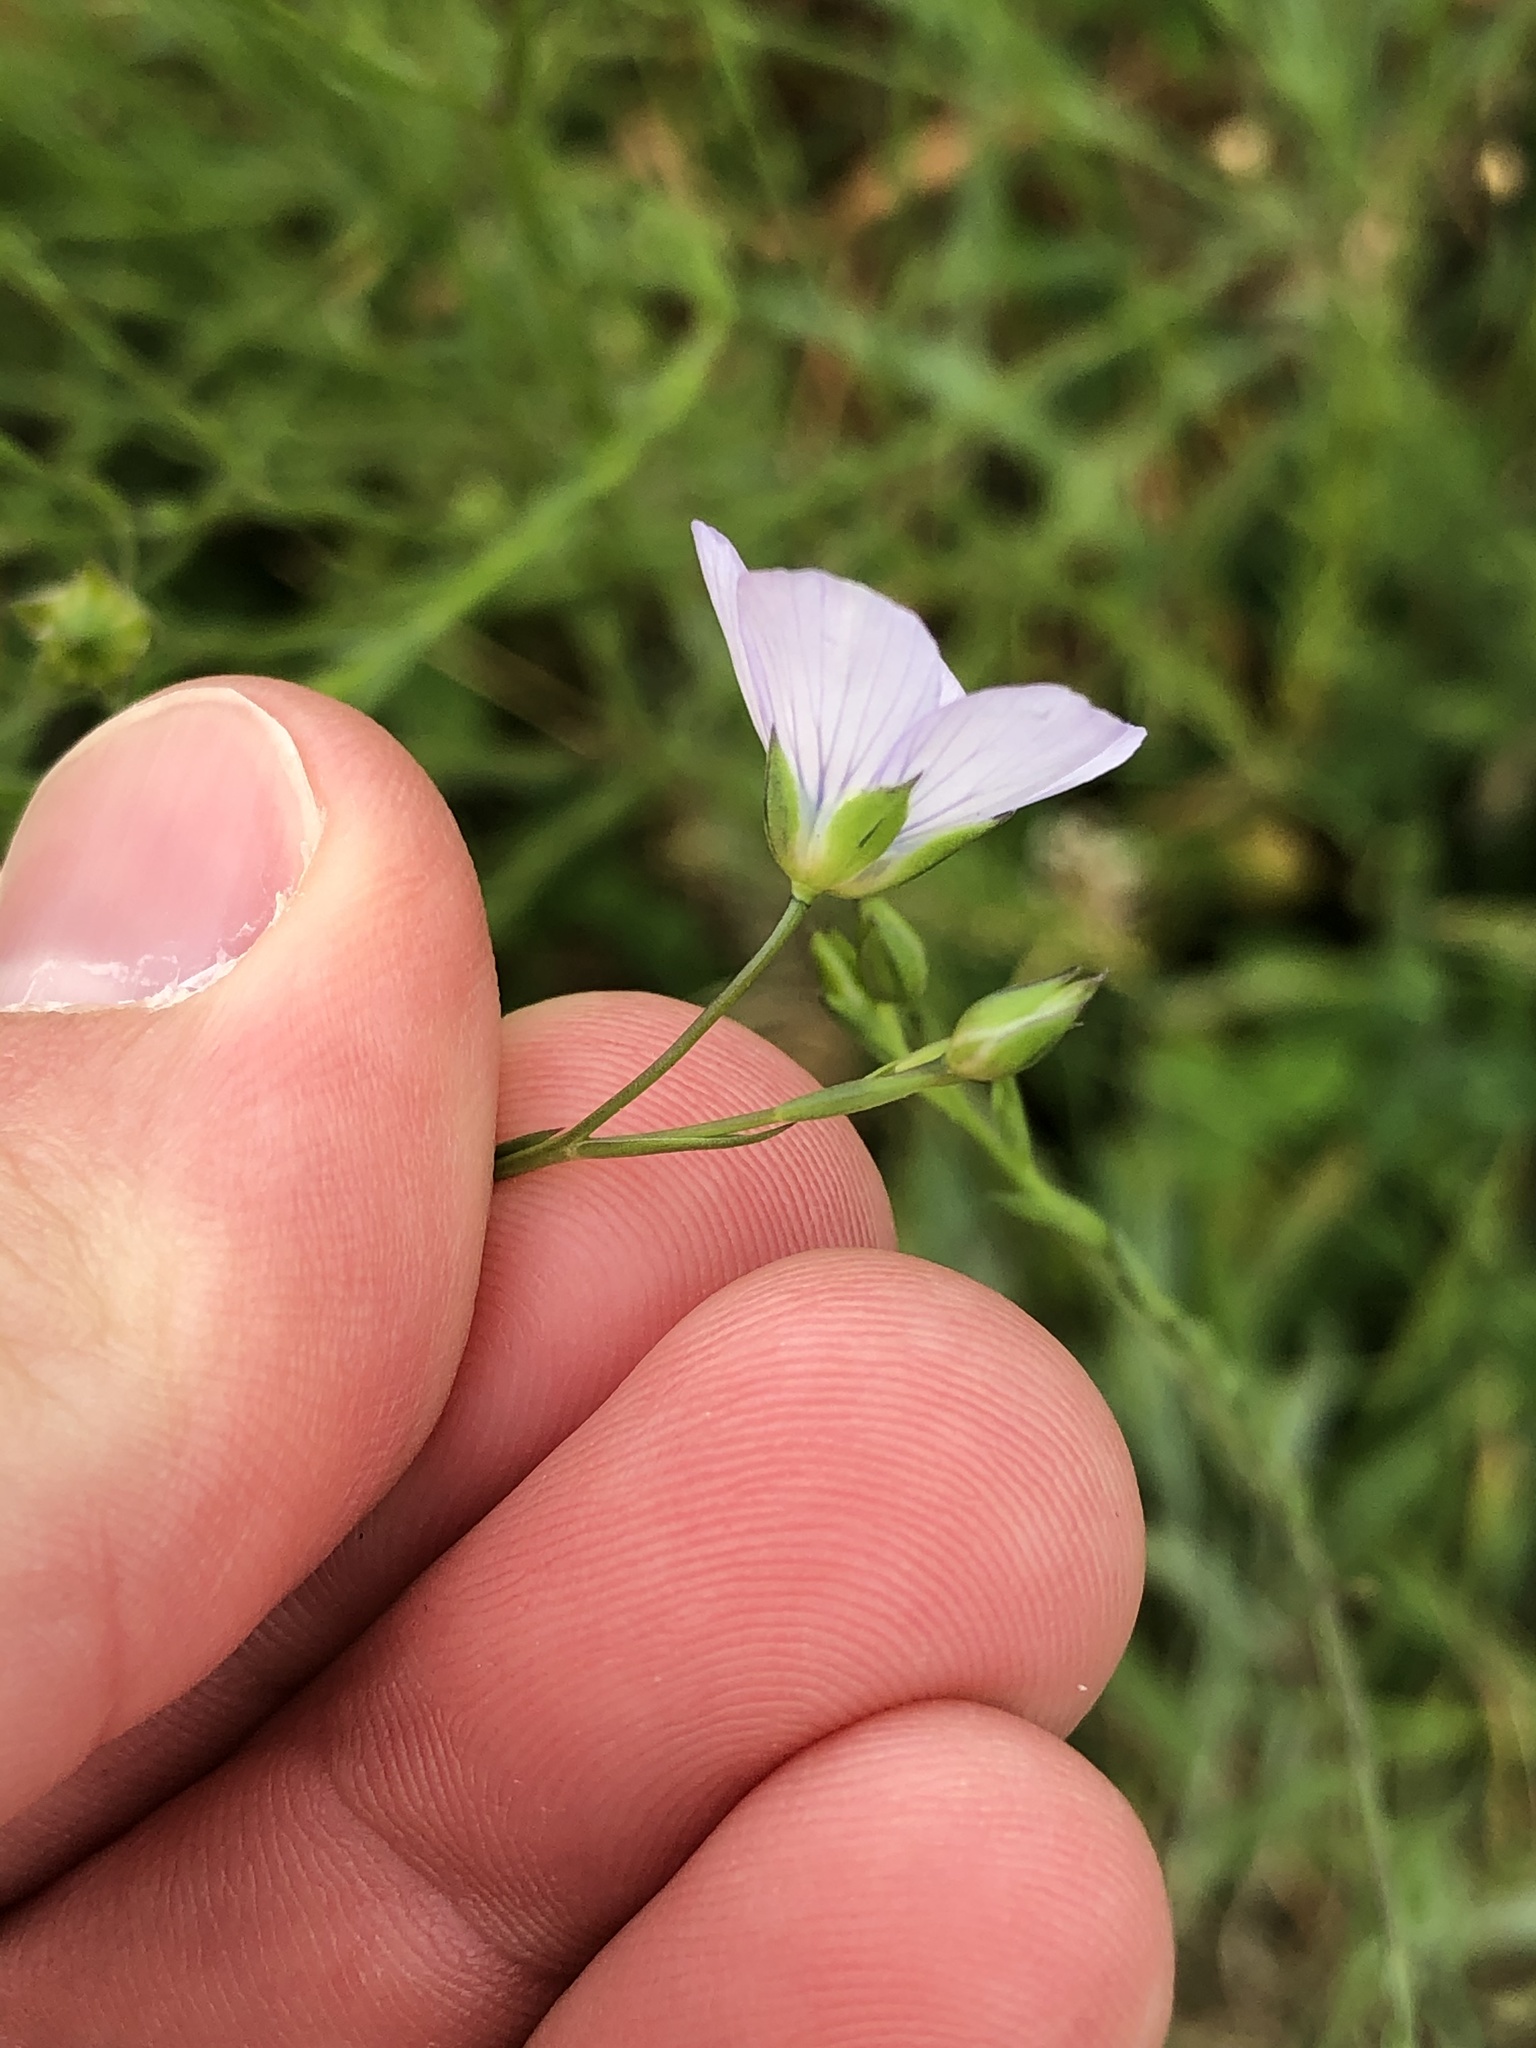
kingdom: Plantae
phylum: Tracheophyta
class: Magnoliopsida
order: Malpighiales
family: Linaceae
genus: Linum
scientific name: Linum bienne
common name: Pale flax
